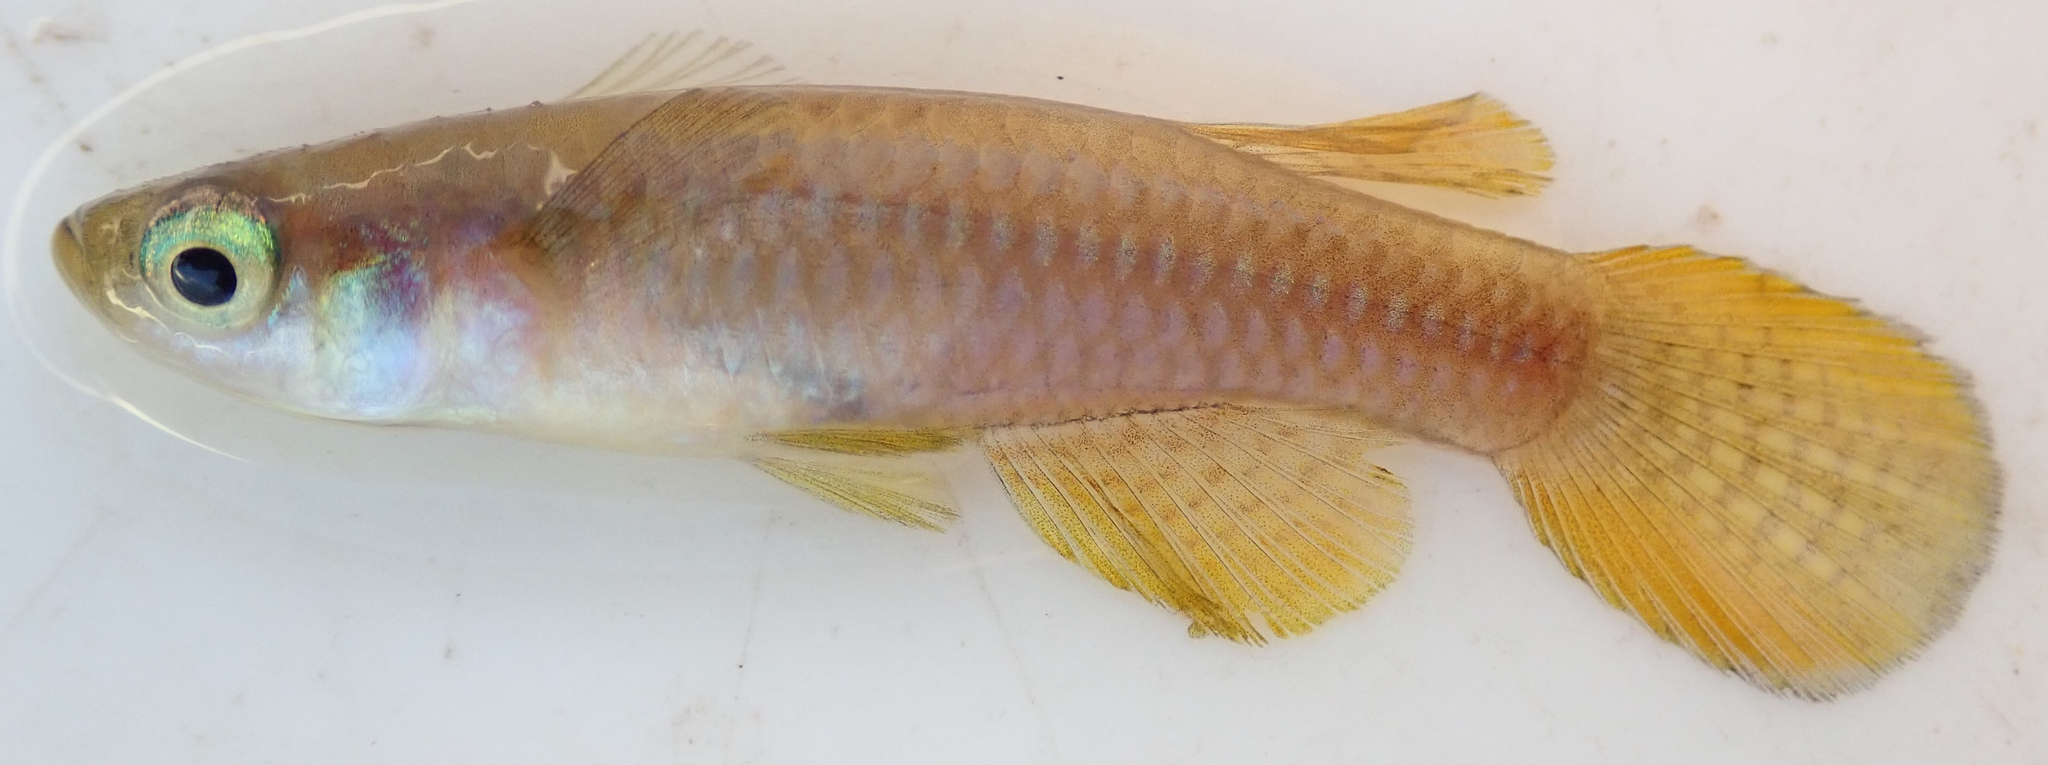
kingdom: Animalia
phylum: Chordata
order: Cyprinodontiformes
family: Poeciliidae
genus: Micropanchax
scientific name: Micropanchax johnstoni
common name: Johnston's topminnow
